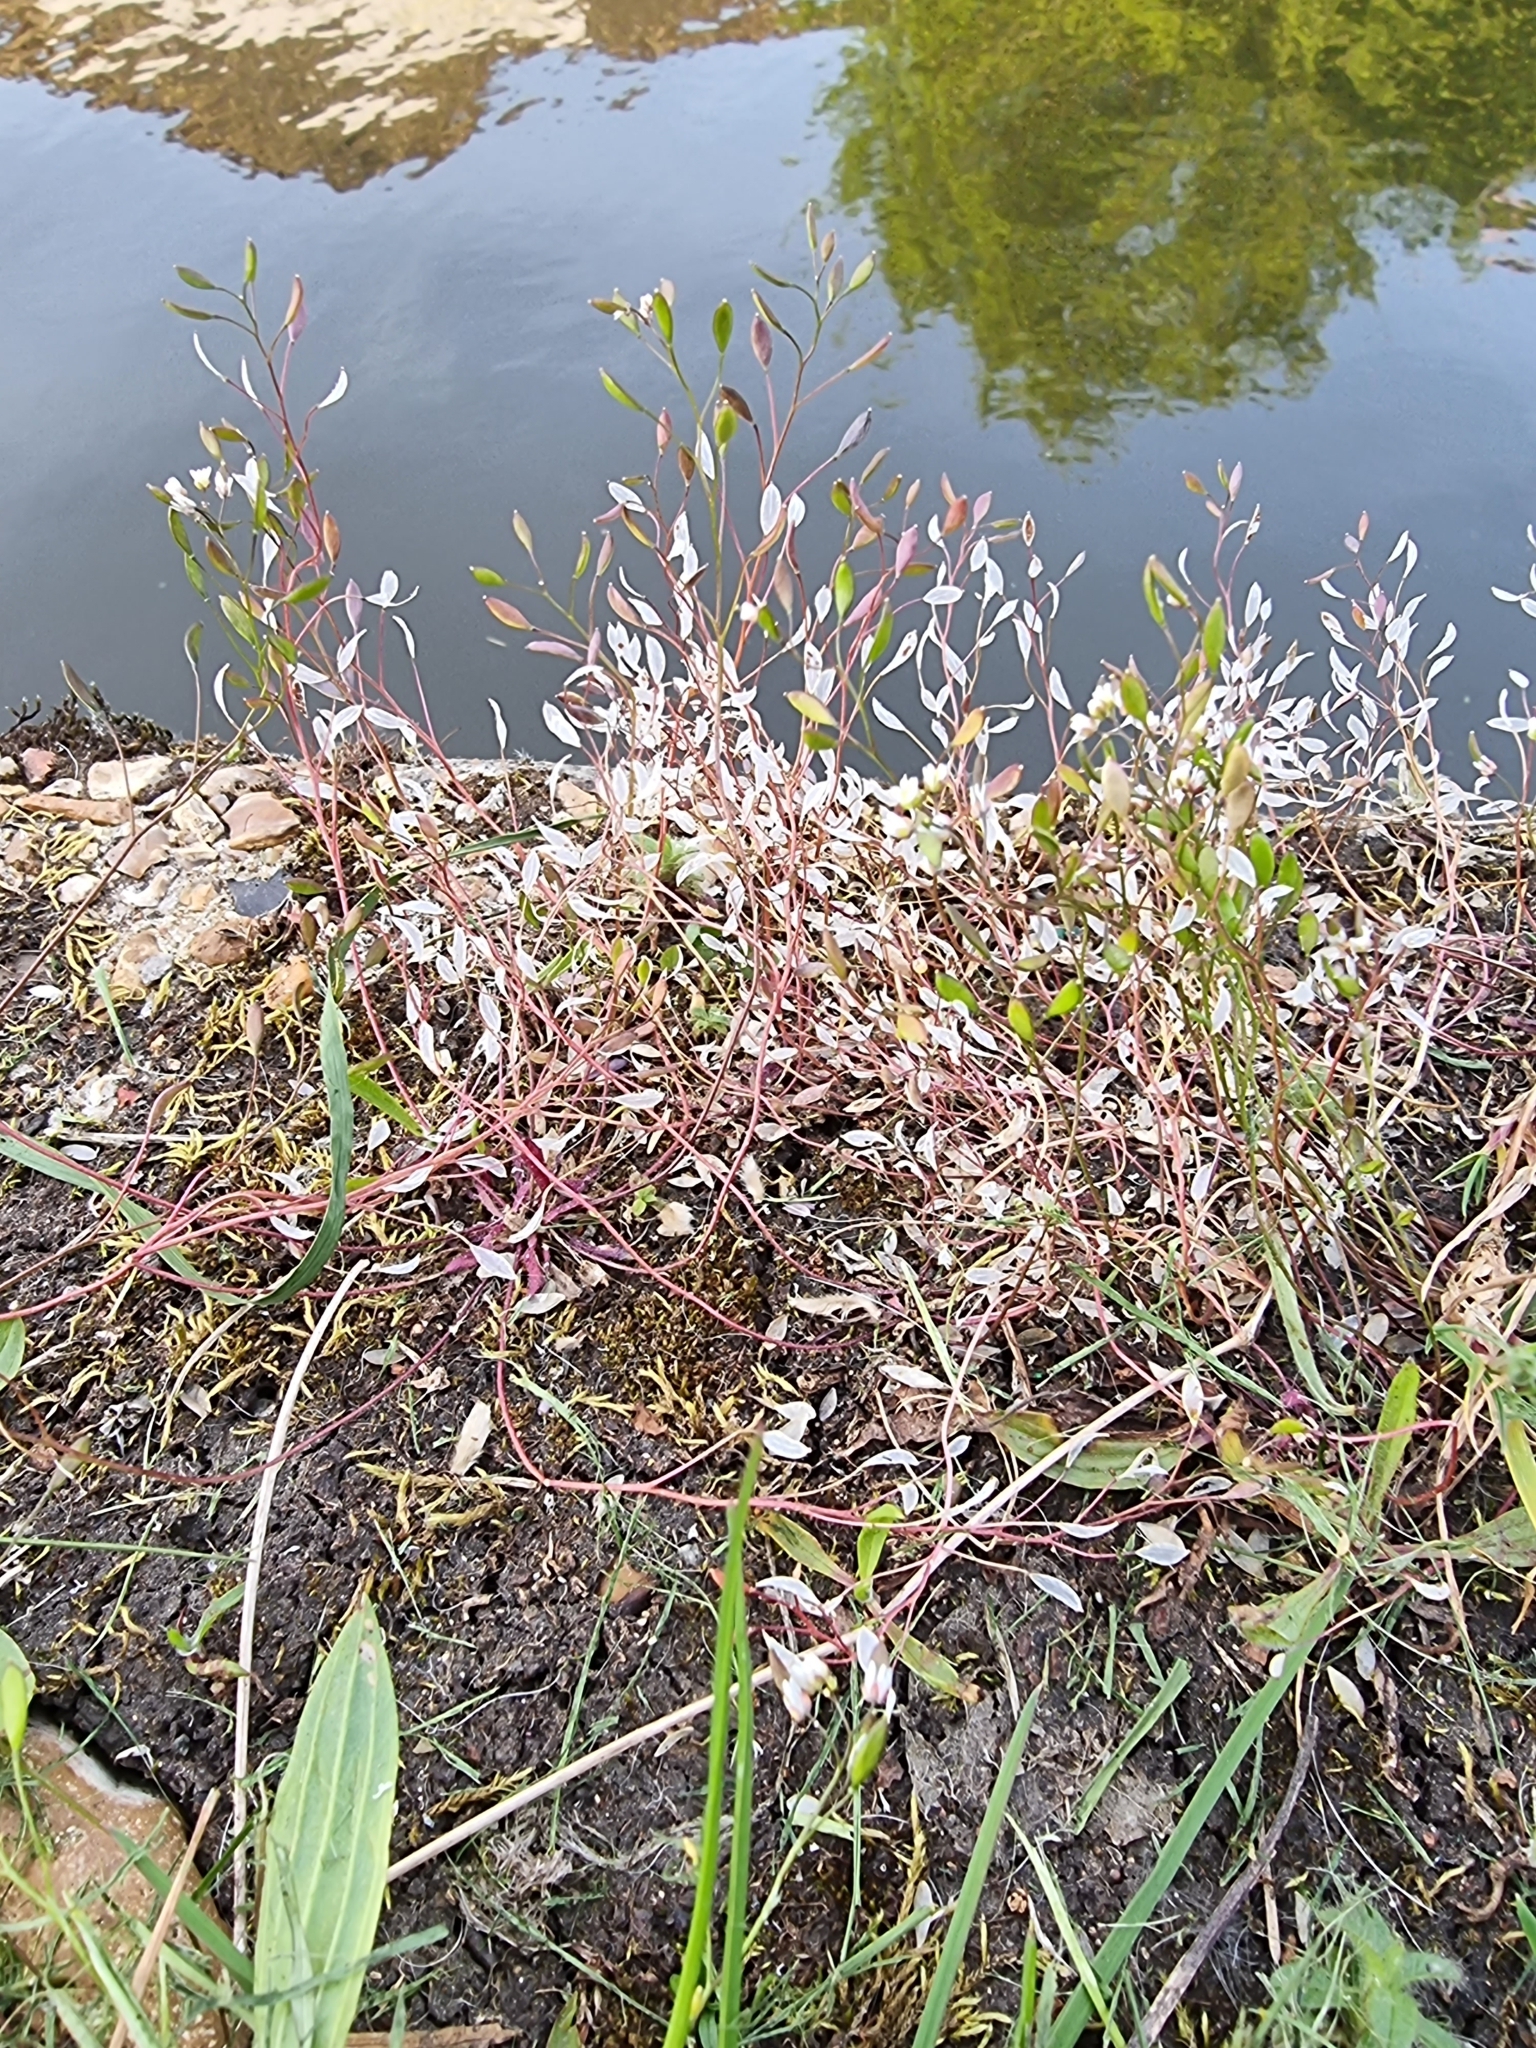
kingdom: Plantae
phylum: Tracheophyta
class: Magnoliopsida
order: Brassicales
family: Brassicaceae
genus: Draba
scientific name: Draba verna
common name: Spring draba
